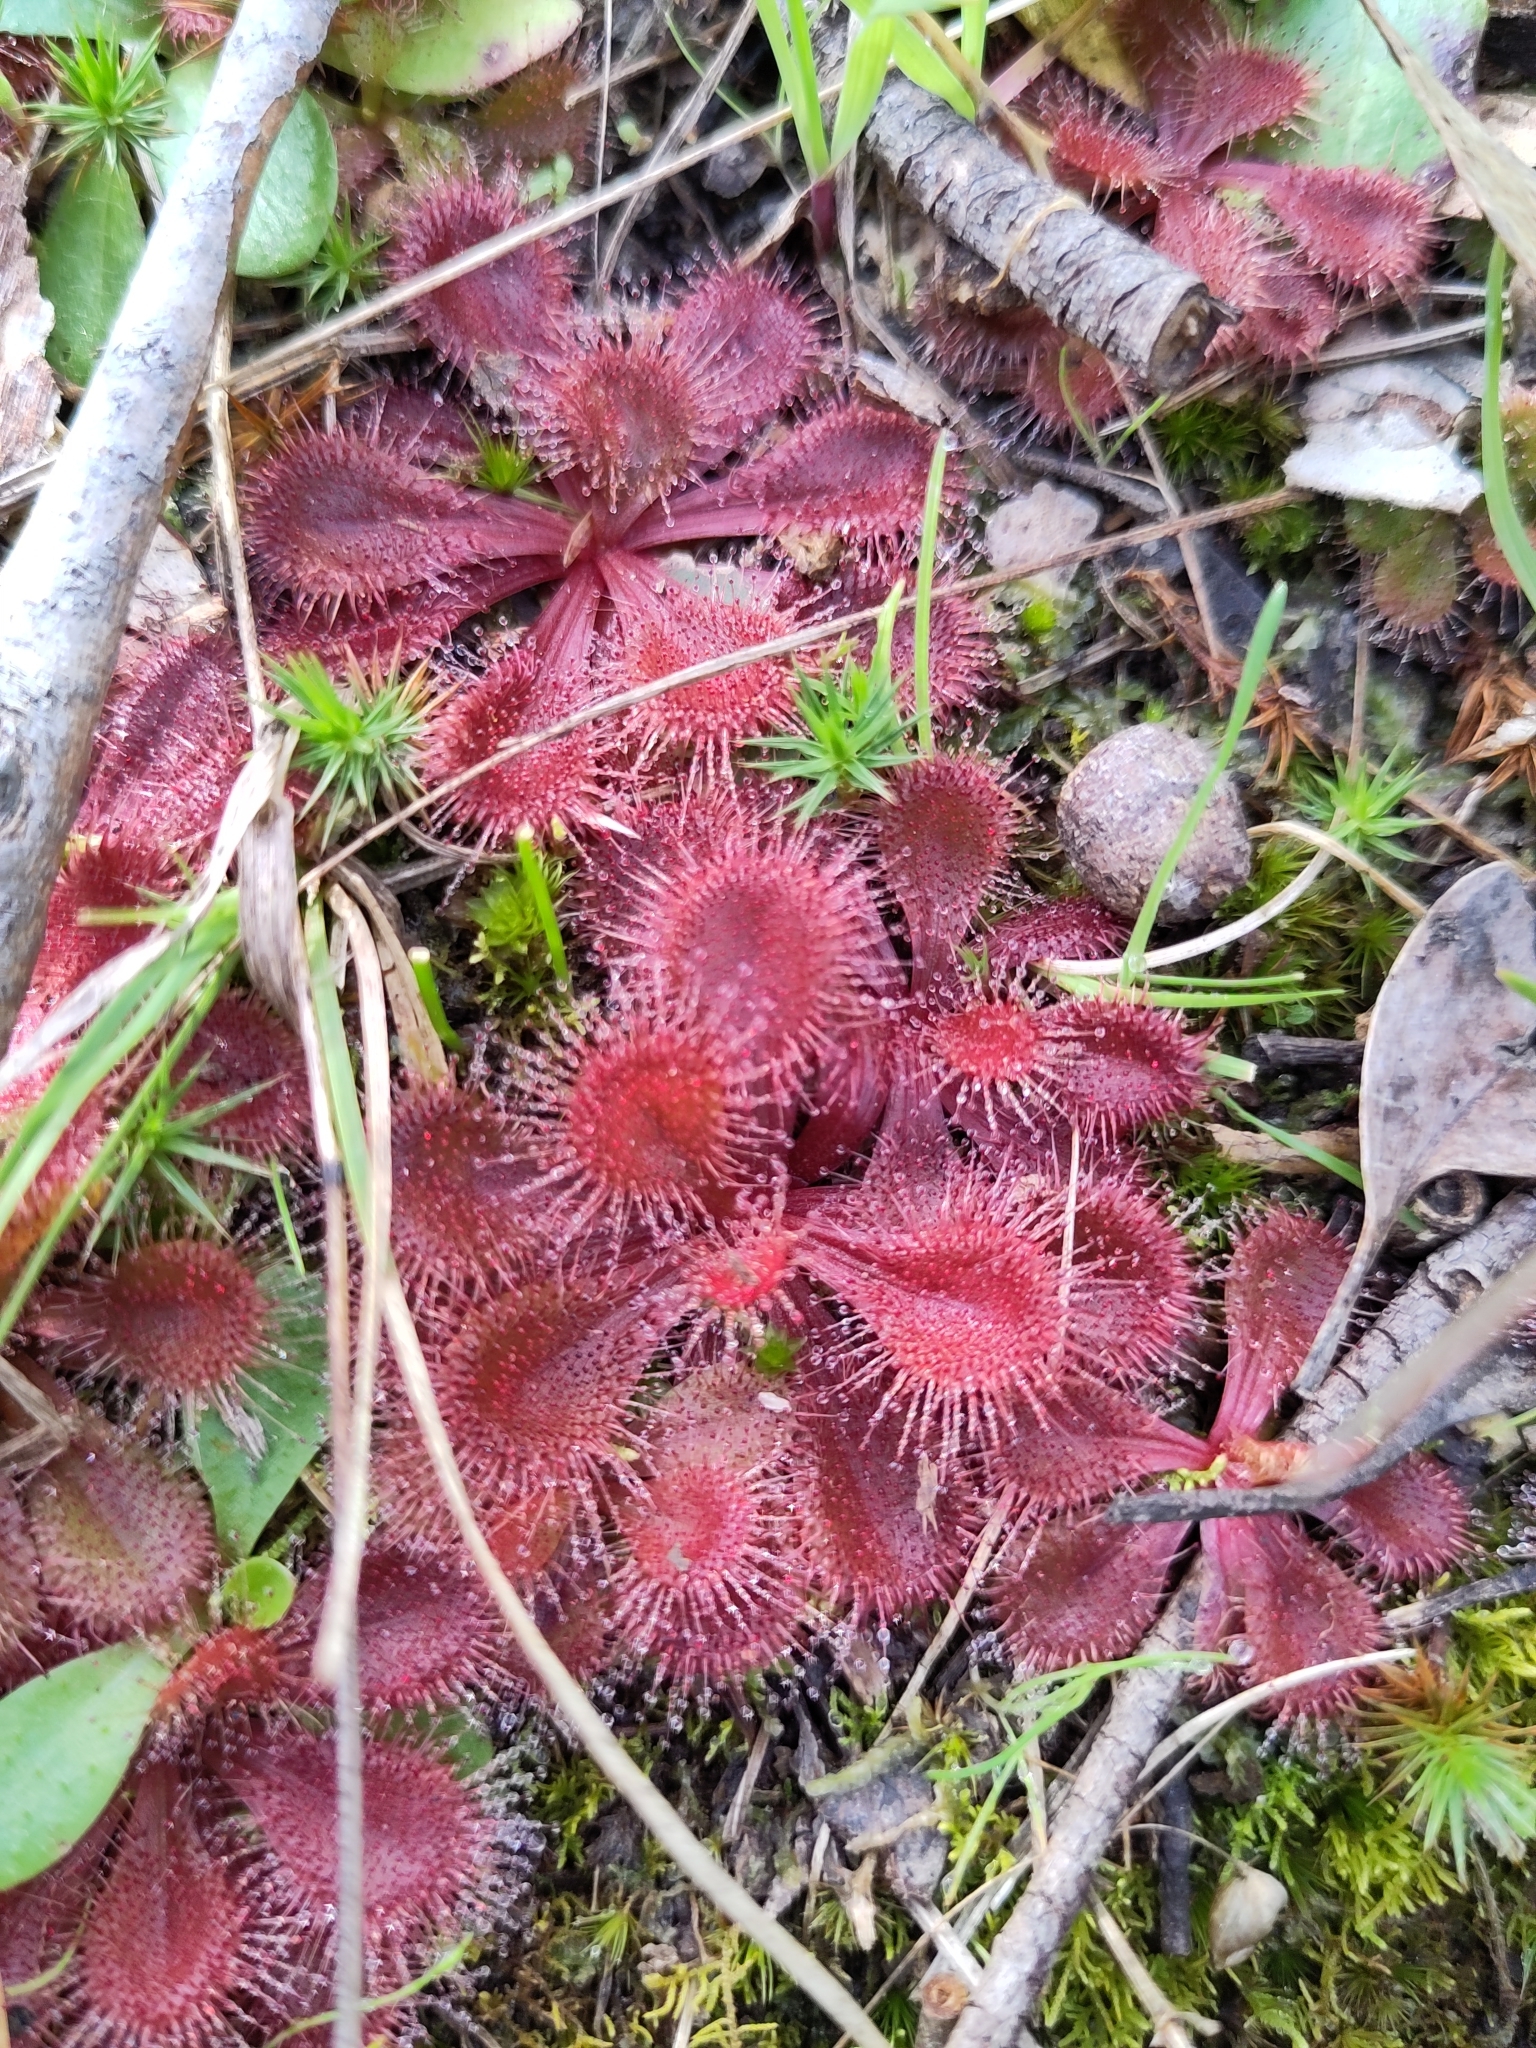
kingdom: Plantae
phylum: Tracheophyta
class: Magnoliopsida
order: Caryophyllales
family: Droseraceae
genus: Drosera
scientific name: Drosera aberrans
